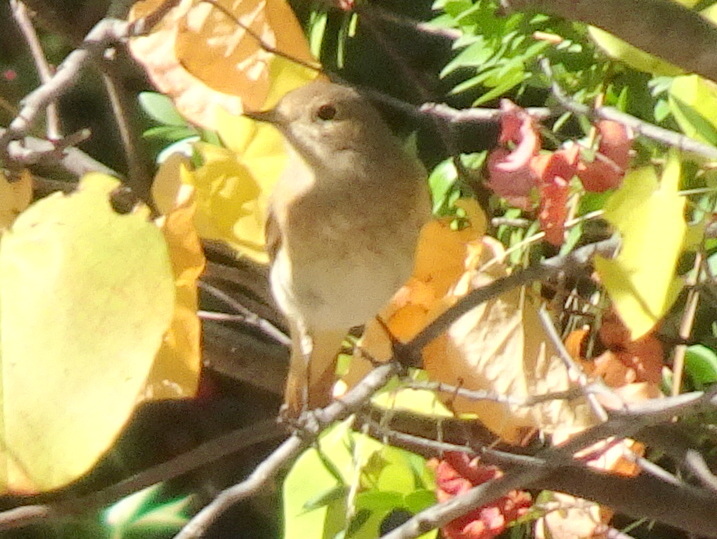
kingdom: Animalia
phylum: Chordata
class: Aves
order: Passeriformes
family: Muscicapidae
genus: Phoenicurus
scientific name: Phoenicurus phoenicurus
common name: Common redstart
